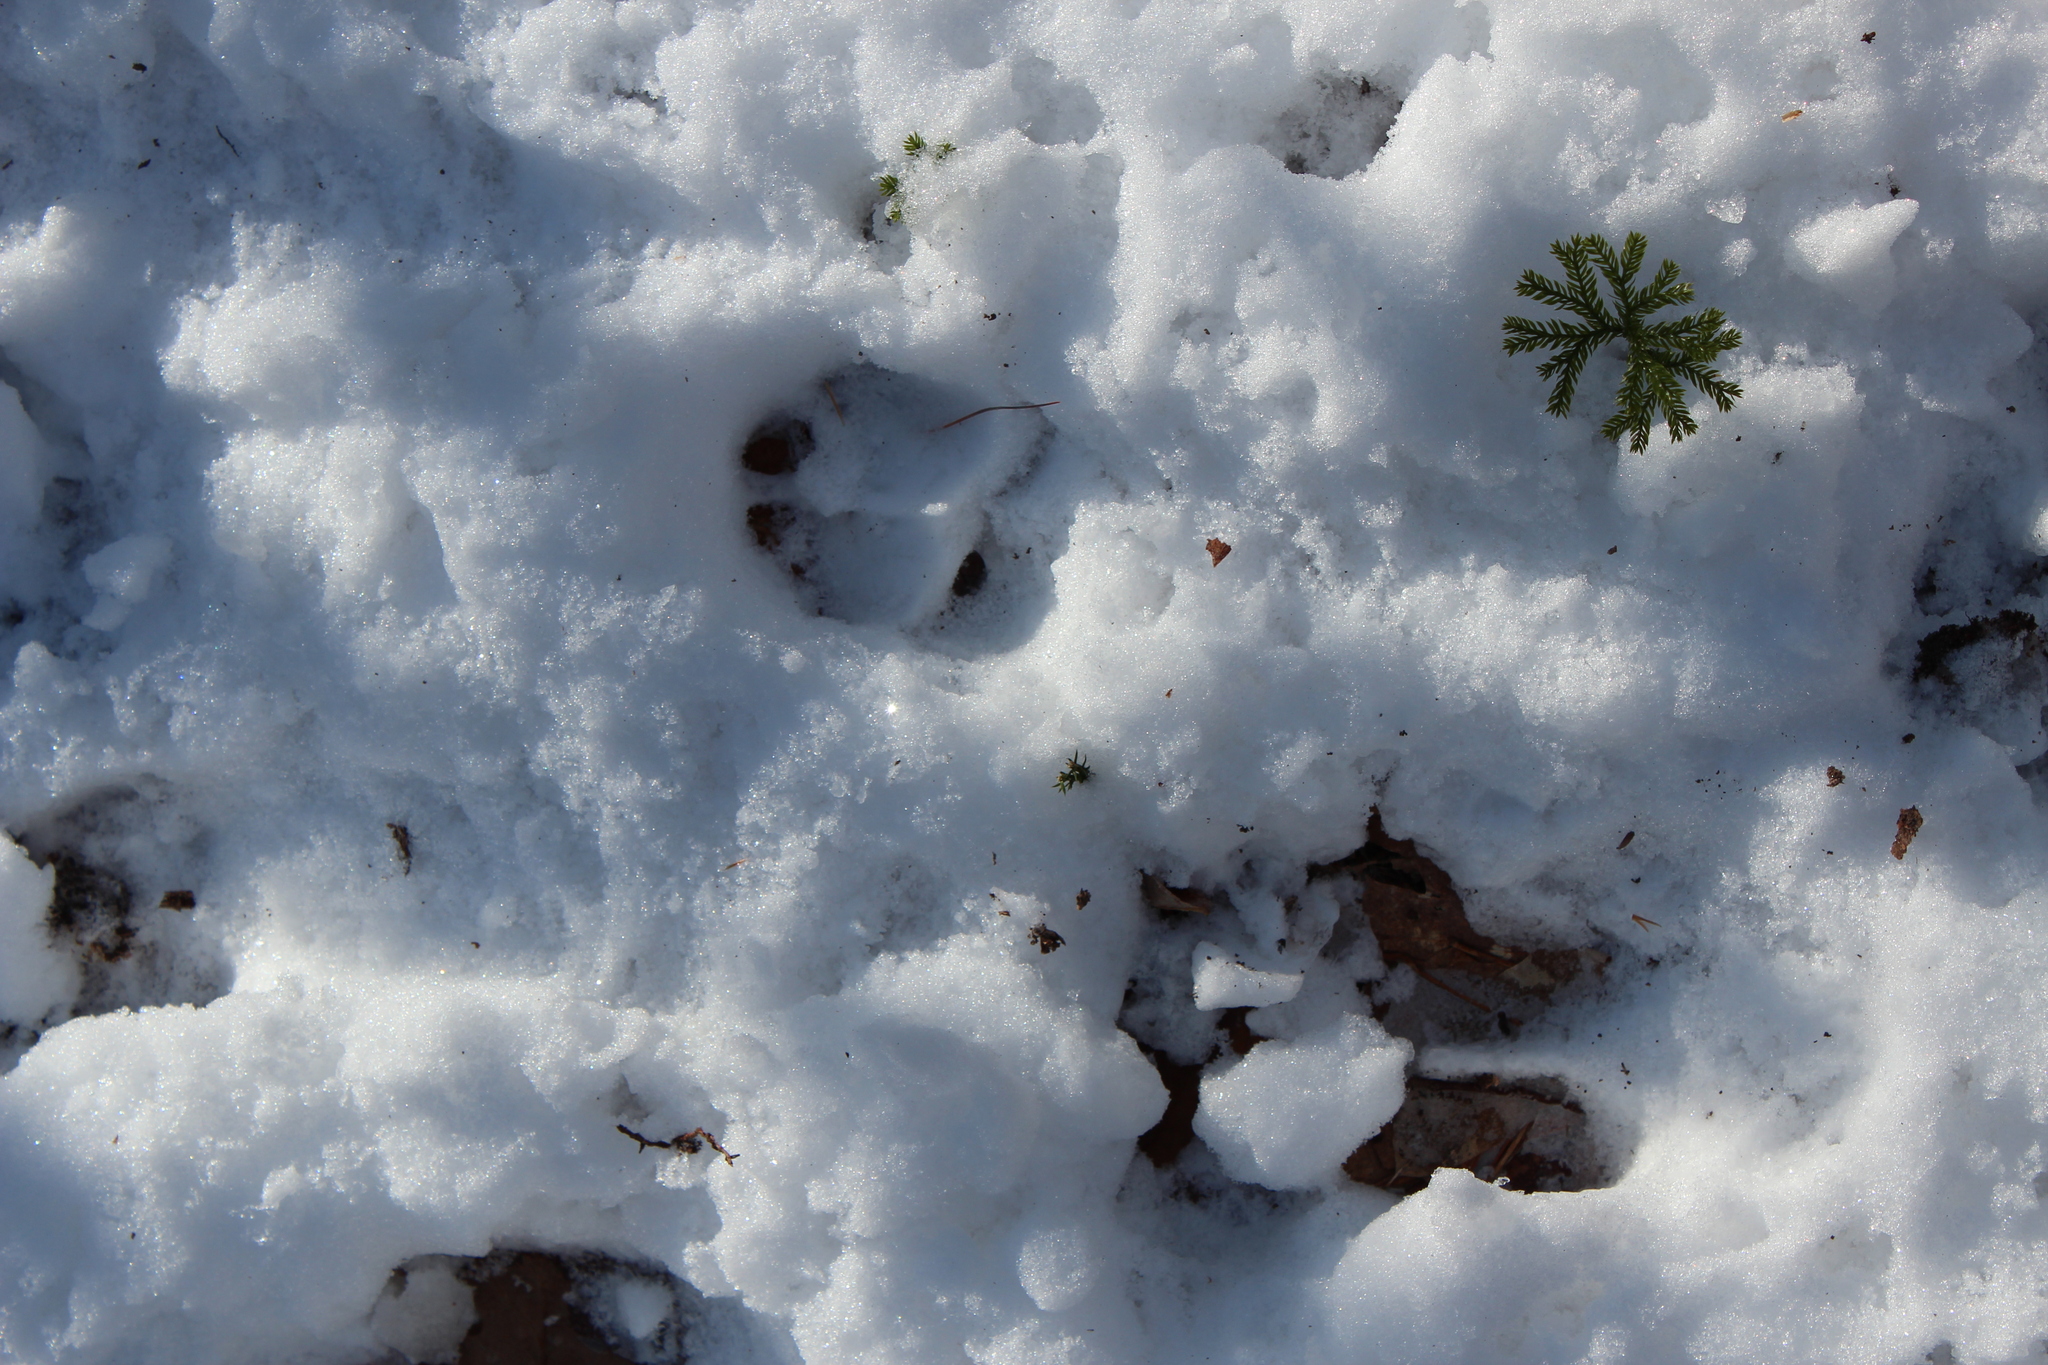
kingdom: Animalia
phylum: Chordata
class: Mammalia
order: Artiodactyla
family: Cervidae
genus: Odocoileus
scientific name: Odocoileus virginianus
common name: White-tailed deer
